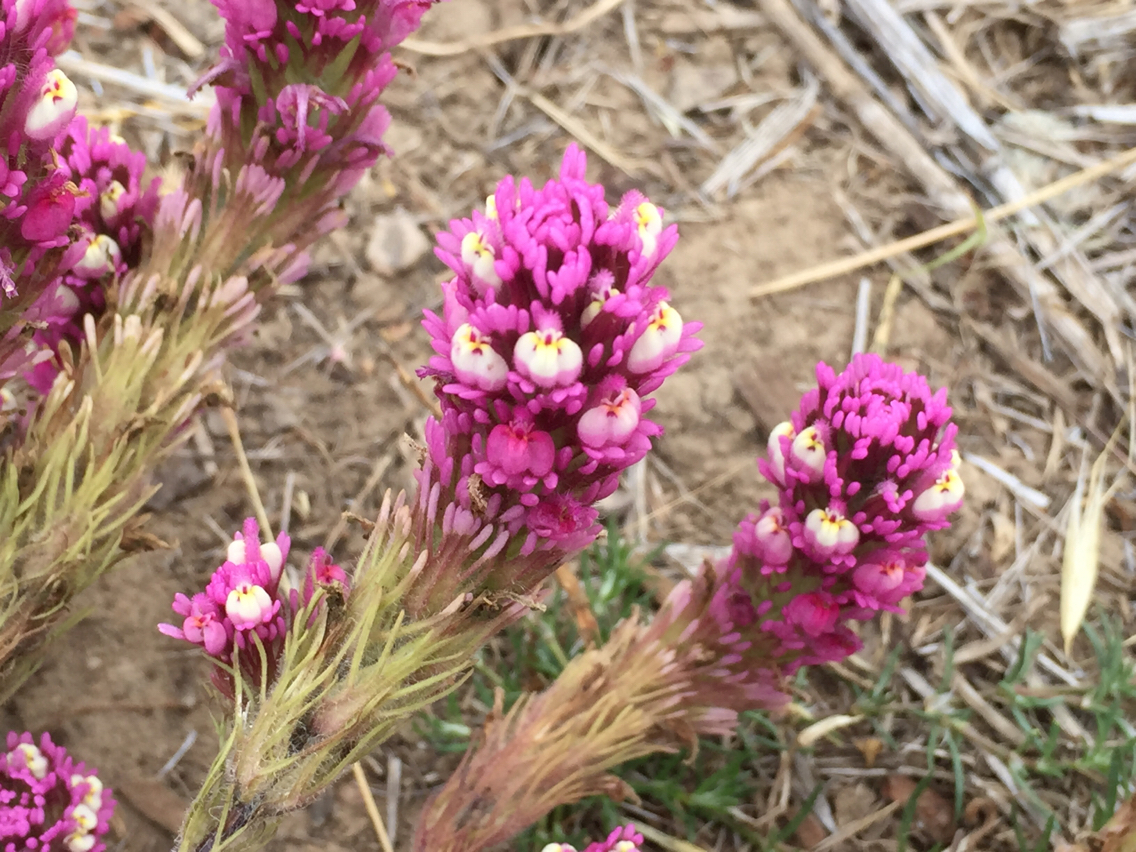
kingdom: Plantae
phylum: Tracheophyta
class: Magnoliopsida
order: Lamiales
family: Orobanchaceae
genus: Castilleja
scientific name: Castilleja exserta
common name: Purple owl-clover
